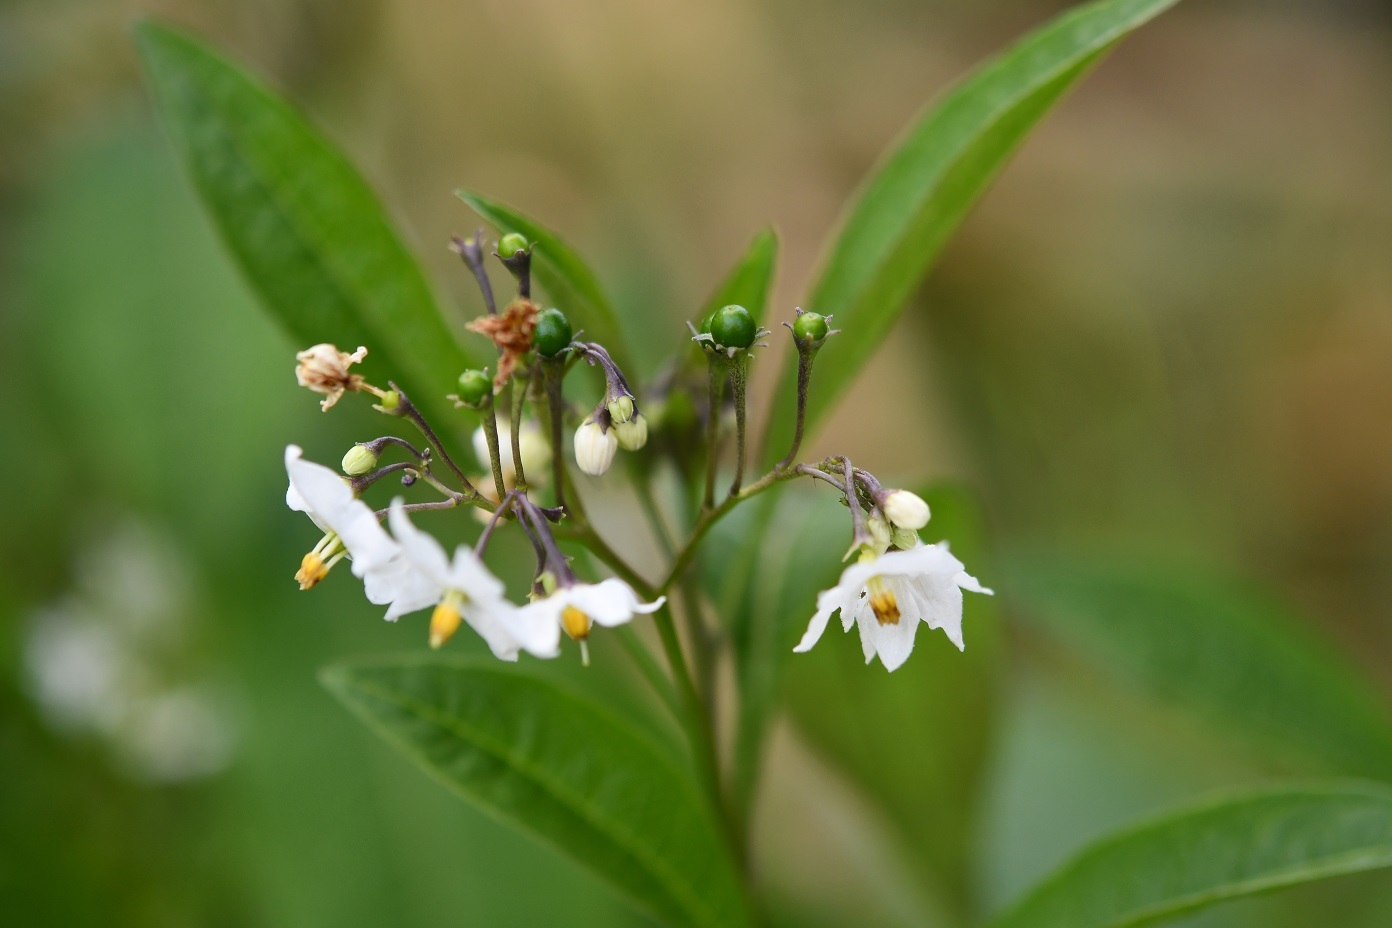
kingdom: Plantae
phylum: Tracheophyta
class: Magnoliopsida
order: Solanales
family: Solanaceae
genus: Solanum
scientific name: Solanum pubigerum
